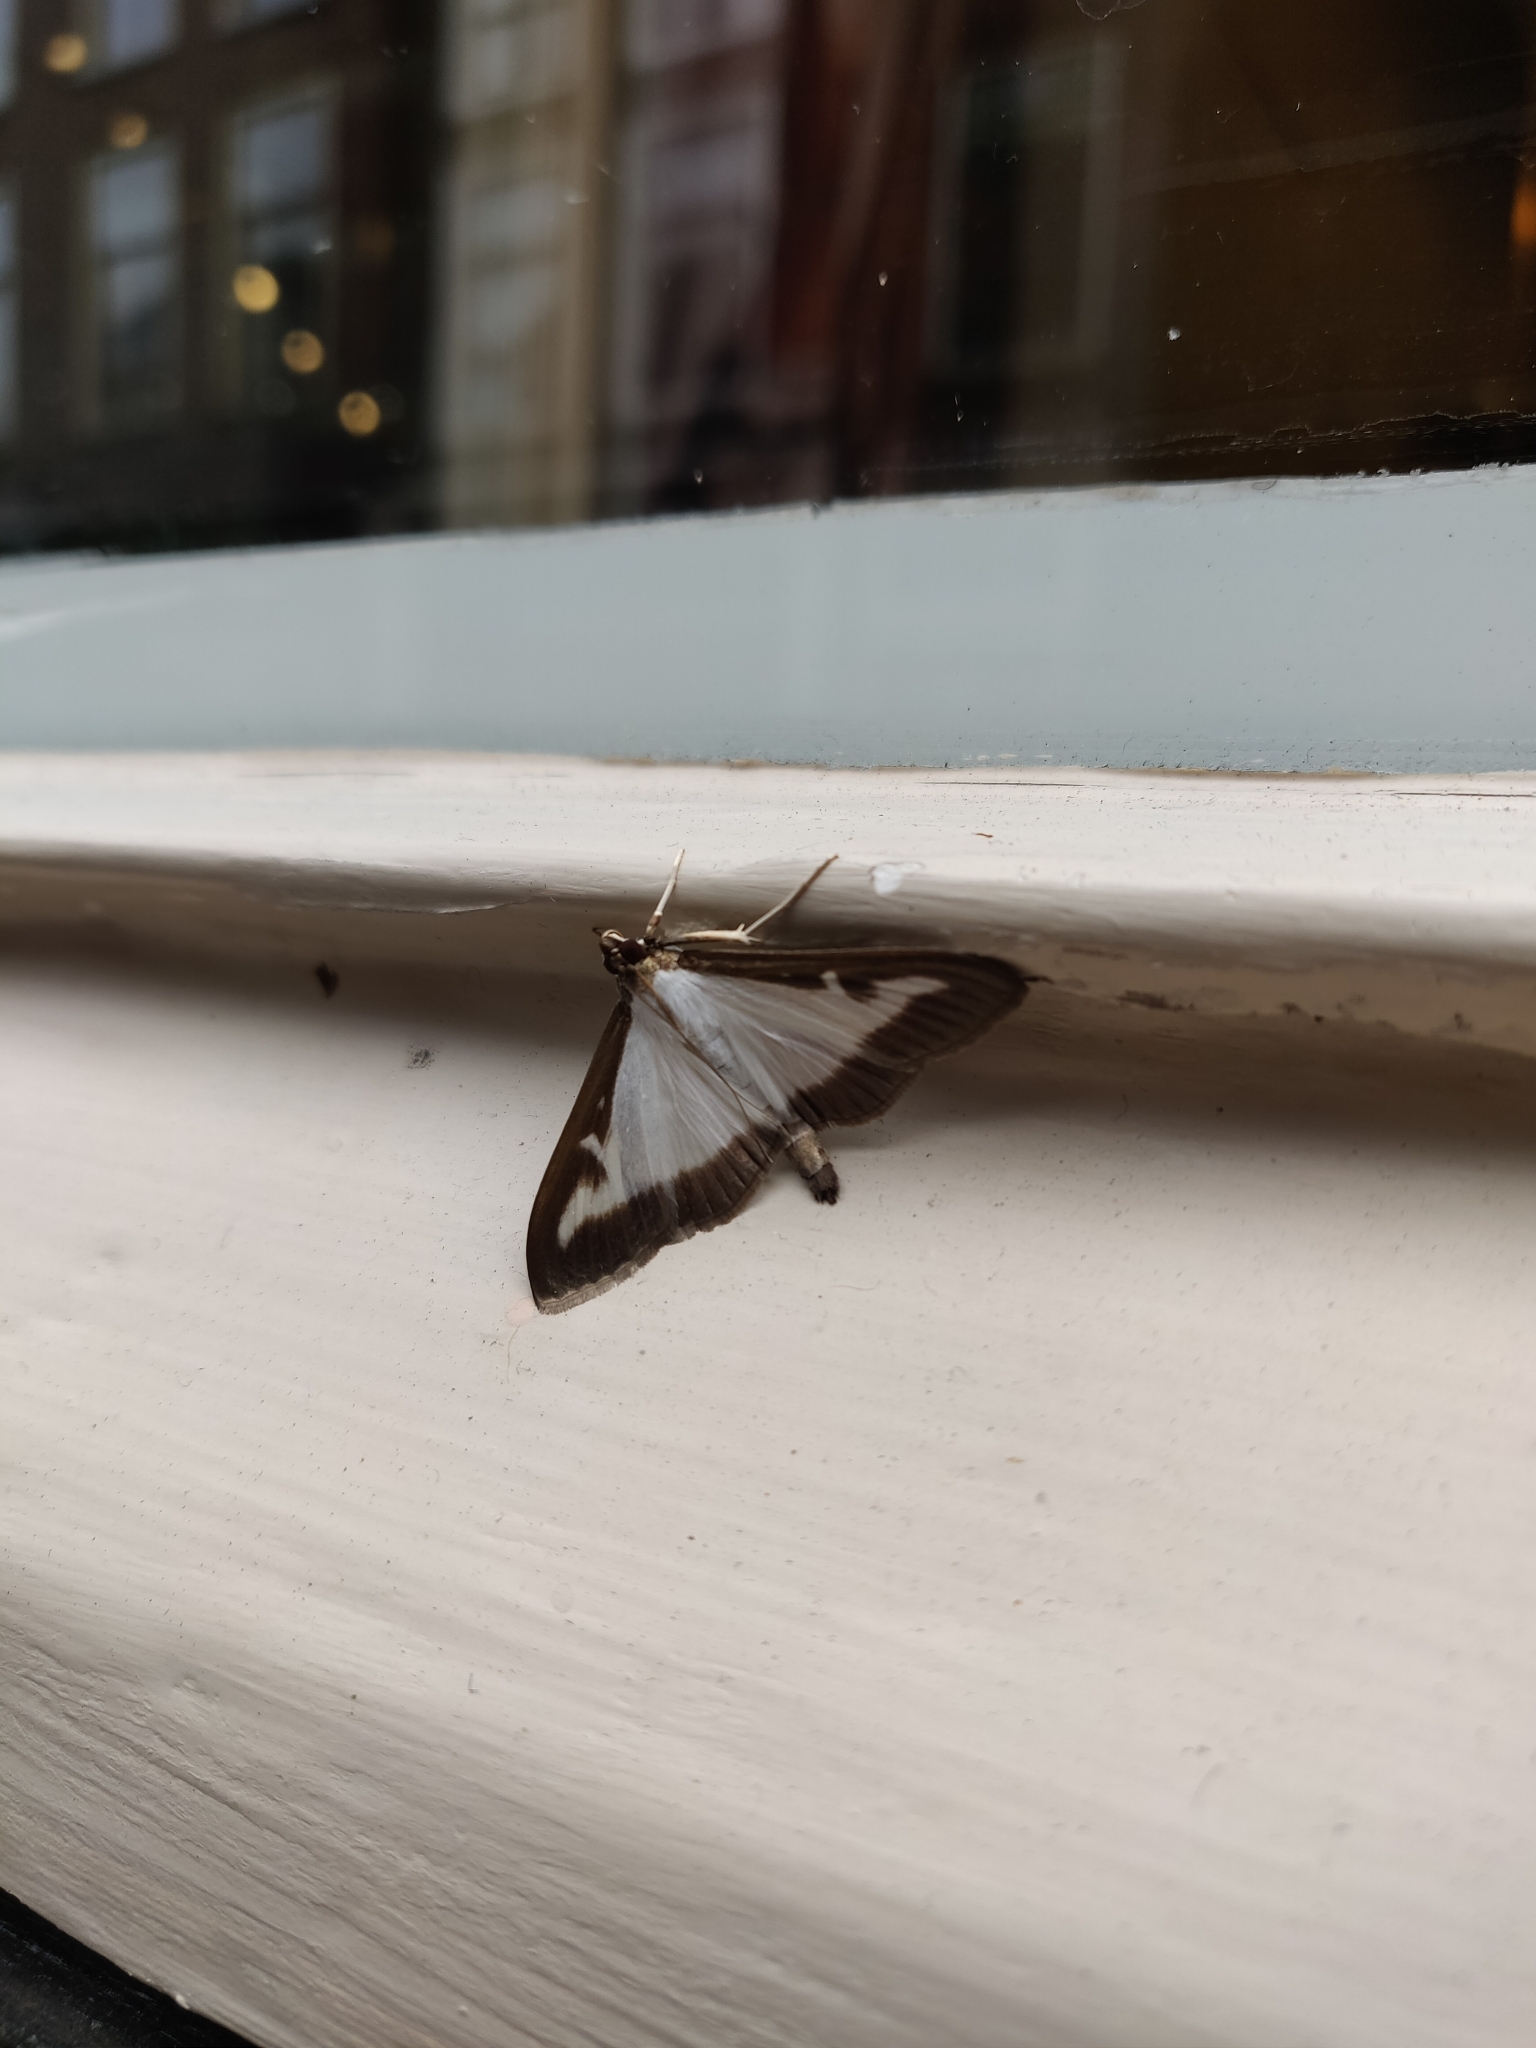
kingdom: Animalia
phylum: Arthropoda
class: Insecta
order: Lepidoptera
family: Crambidae
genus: Cydalima
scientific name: Cydalima perspectalis
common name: Box tree moth
